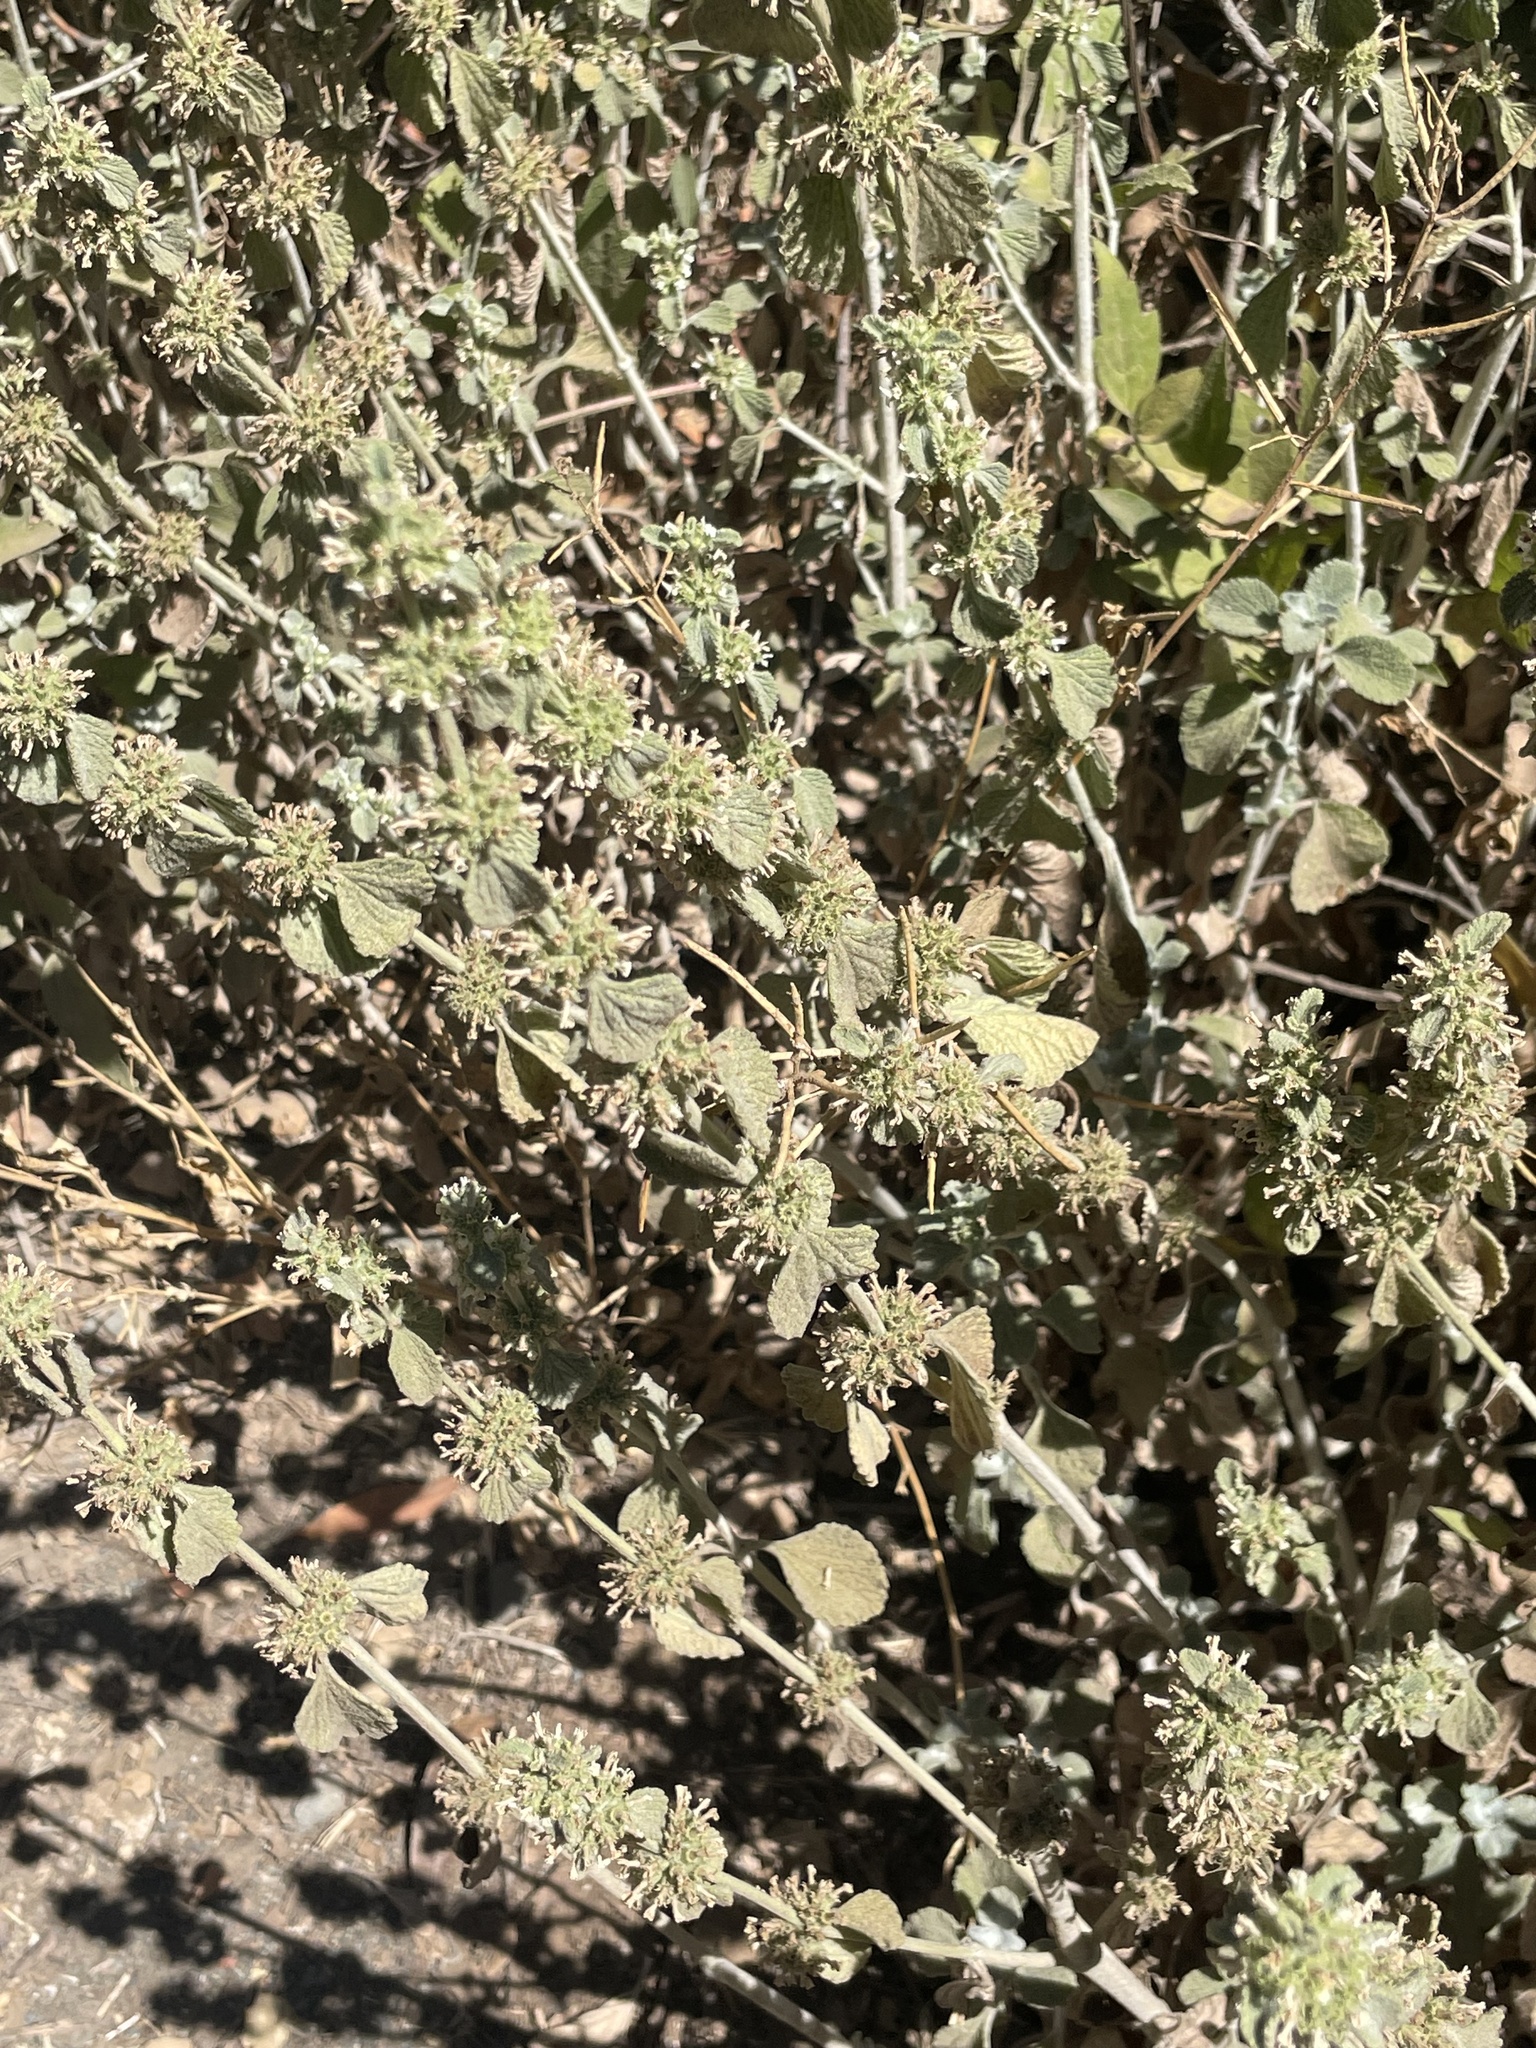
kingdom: Plantae
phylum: Tracheophyta
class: Magnoliopsida
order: Lamiales
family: Lamiaceae
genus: Marrubium
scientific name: Marrubium vulgare
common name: Horehound
